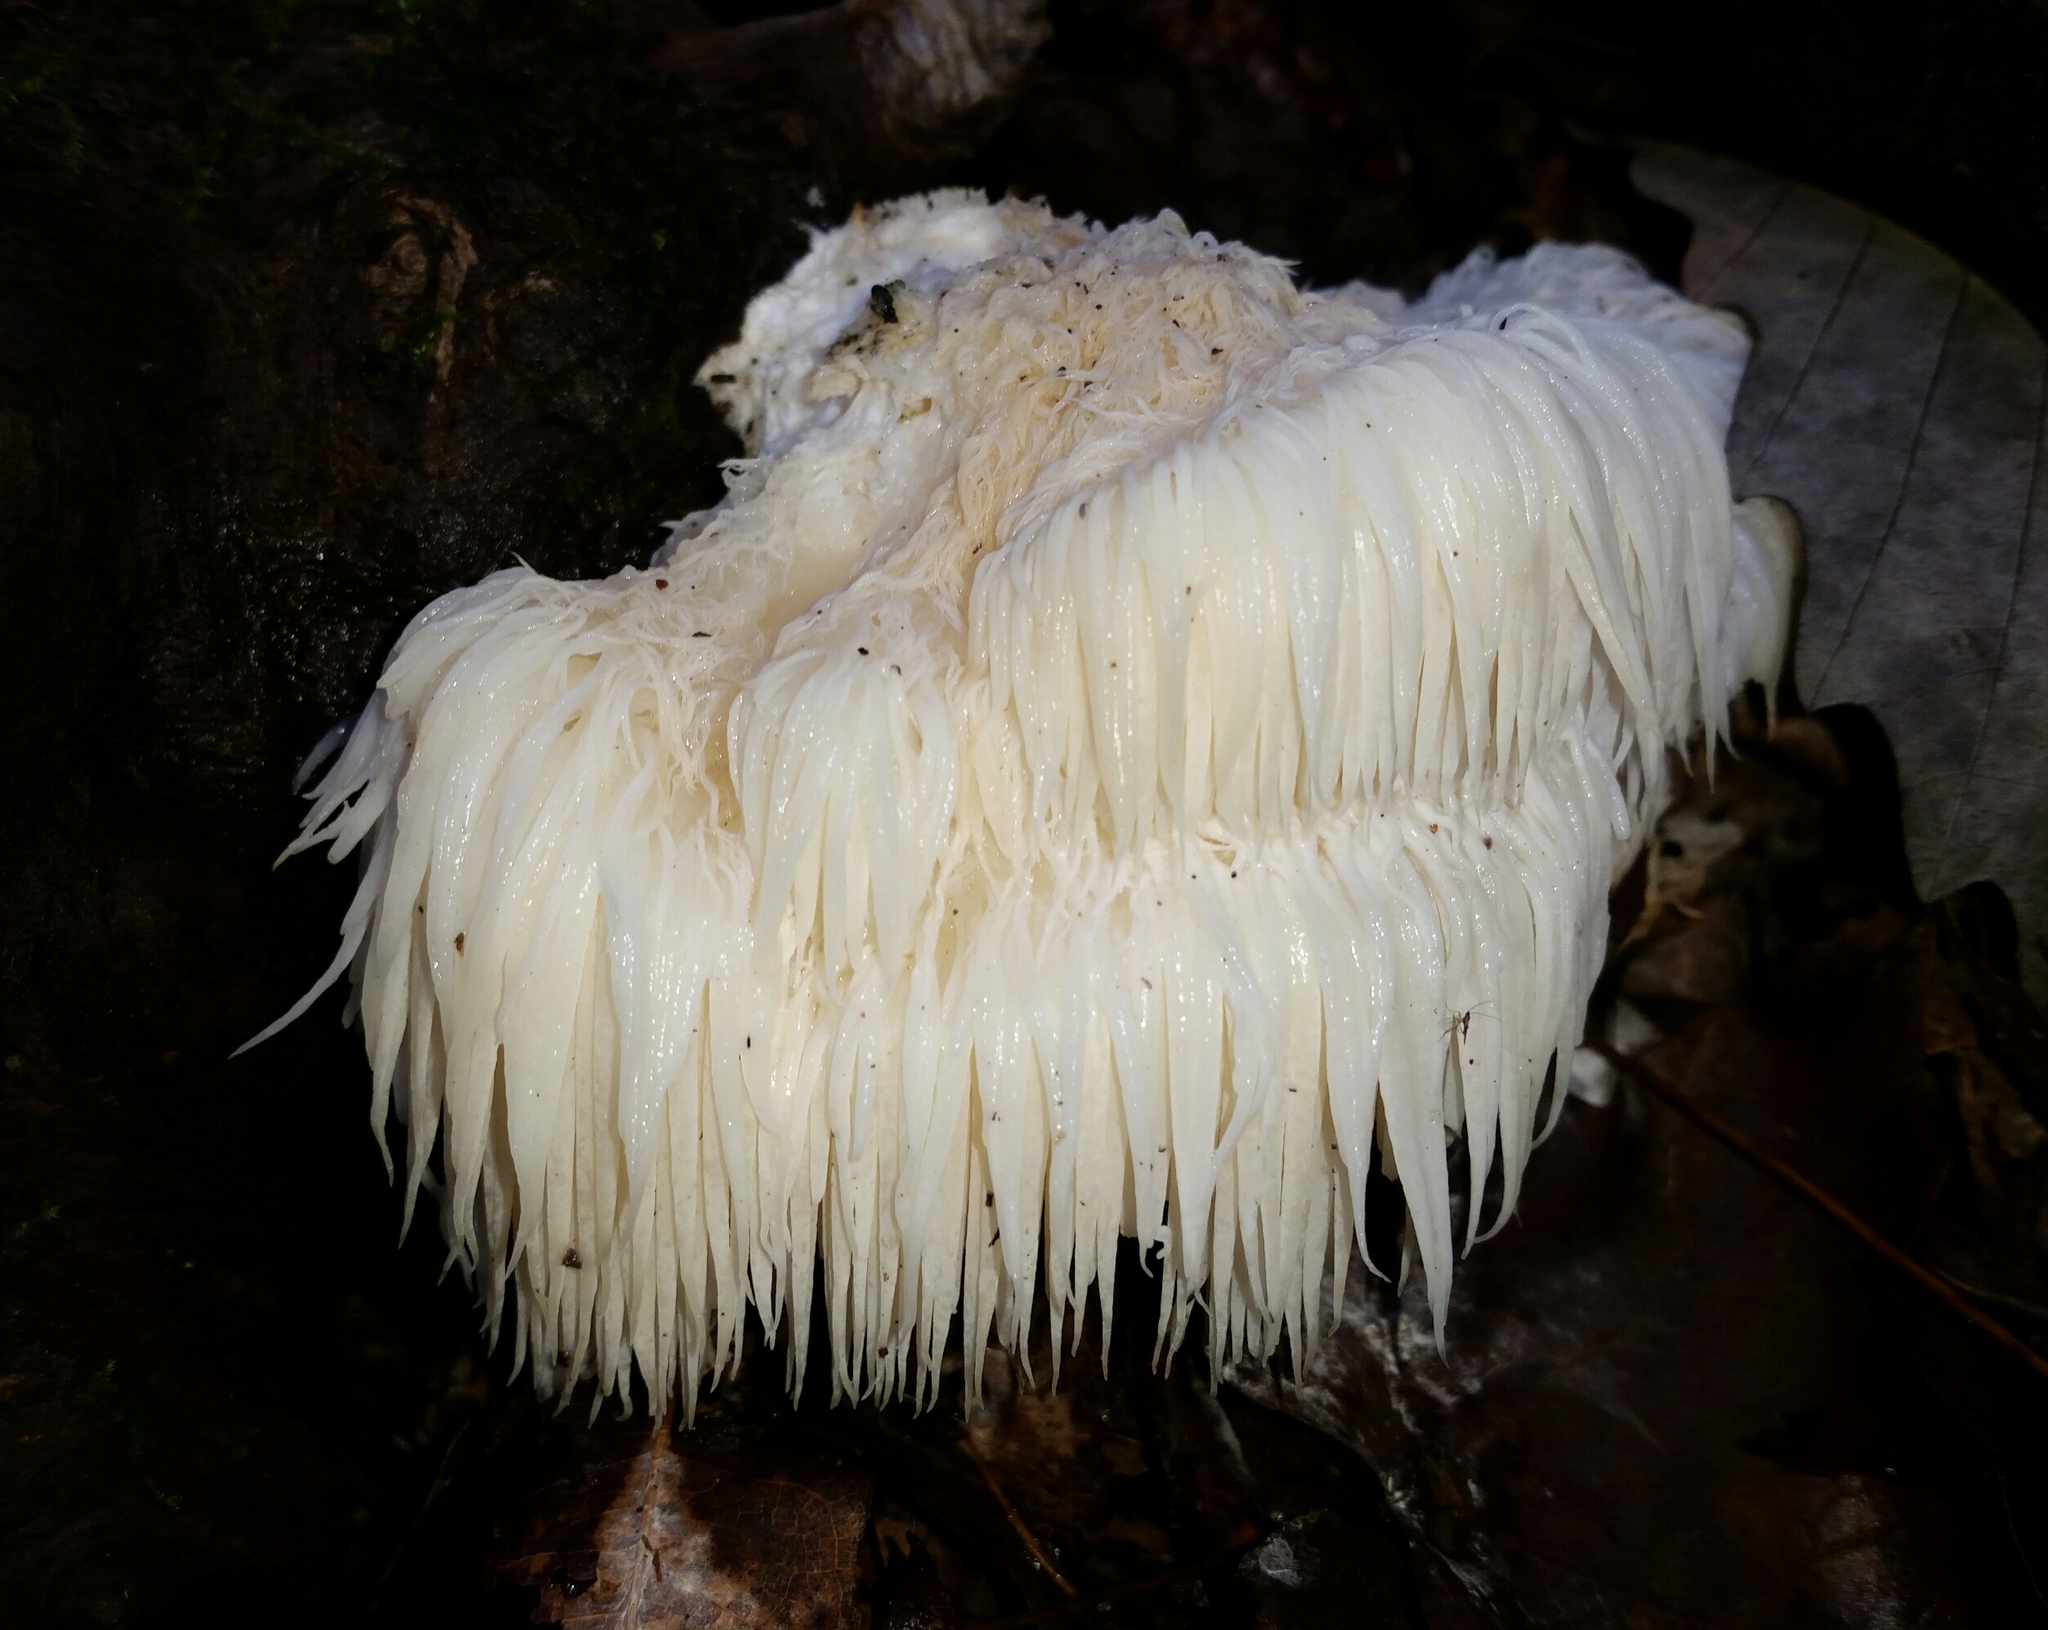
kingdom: Fungi
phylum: Basidiomycota
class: Agaricomycetes
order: Russulales
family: Hericiaceae
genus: Hericium
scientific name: Hericium erinaceus
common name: Bearded tooth
